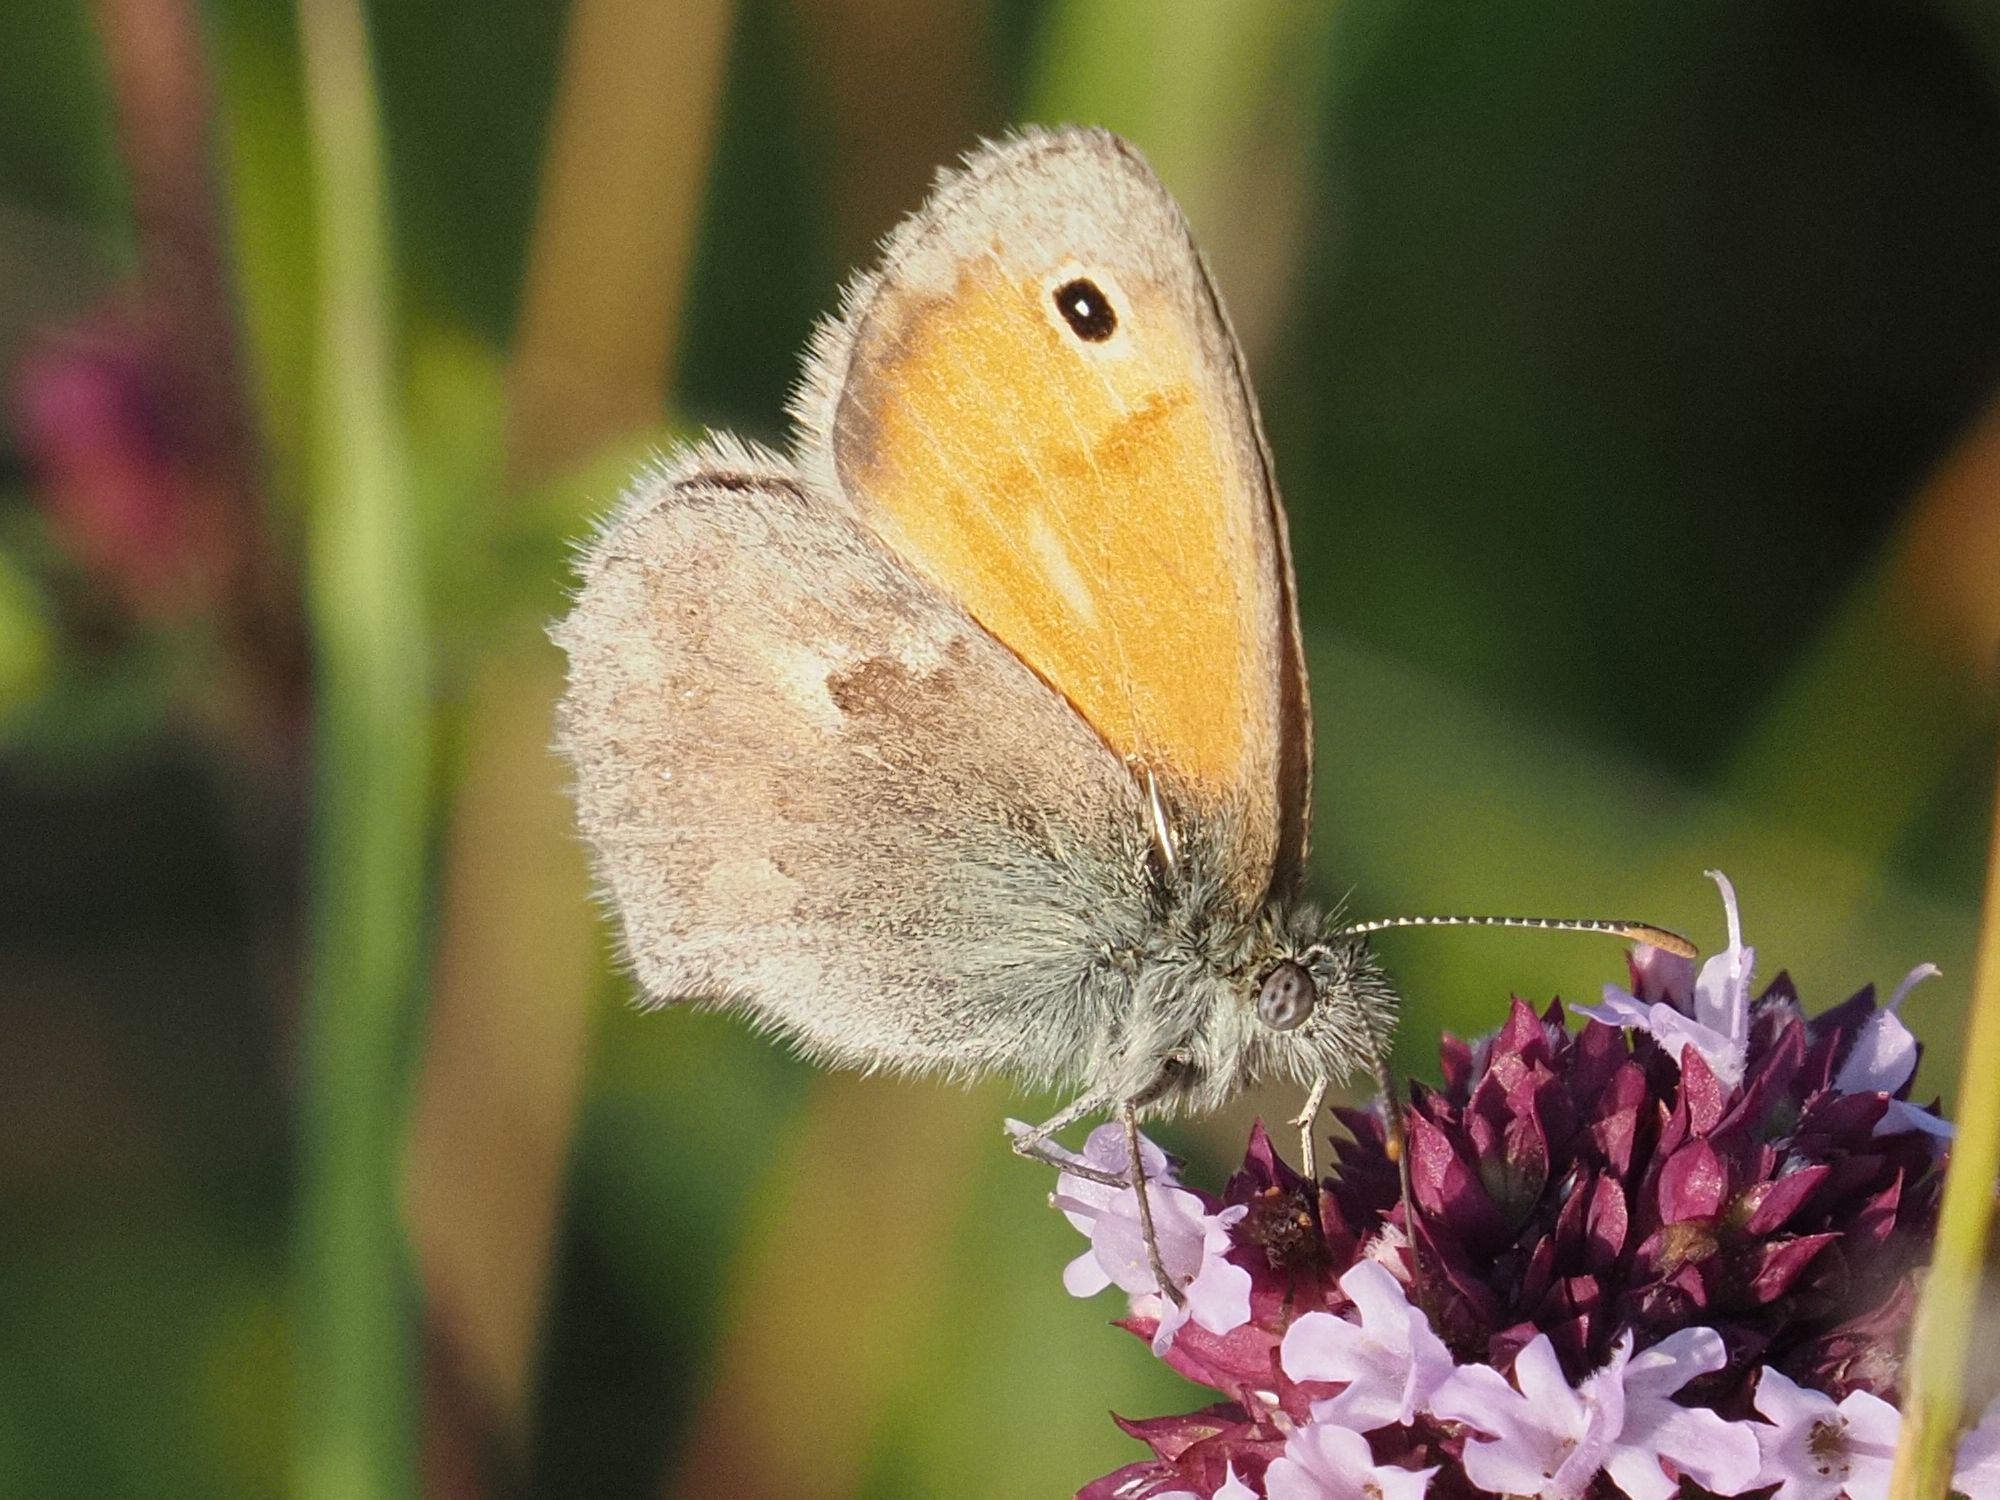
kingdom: Animalia
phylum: Arthropoda
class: Insecta
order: Lepidoptera
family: Nymphalidae
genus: Coenonympha
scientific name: Coenonympha pamphilus
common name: Small heath
